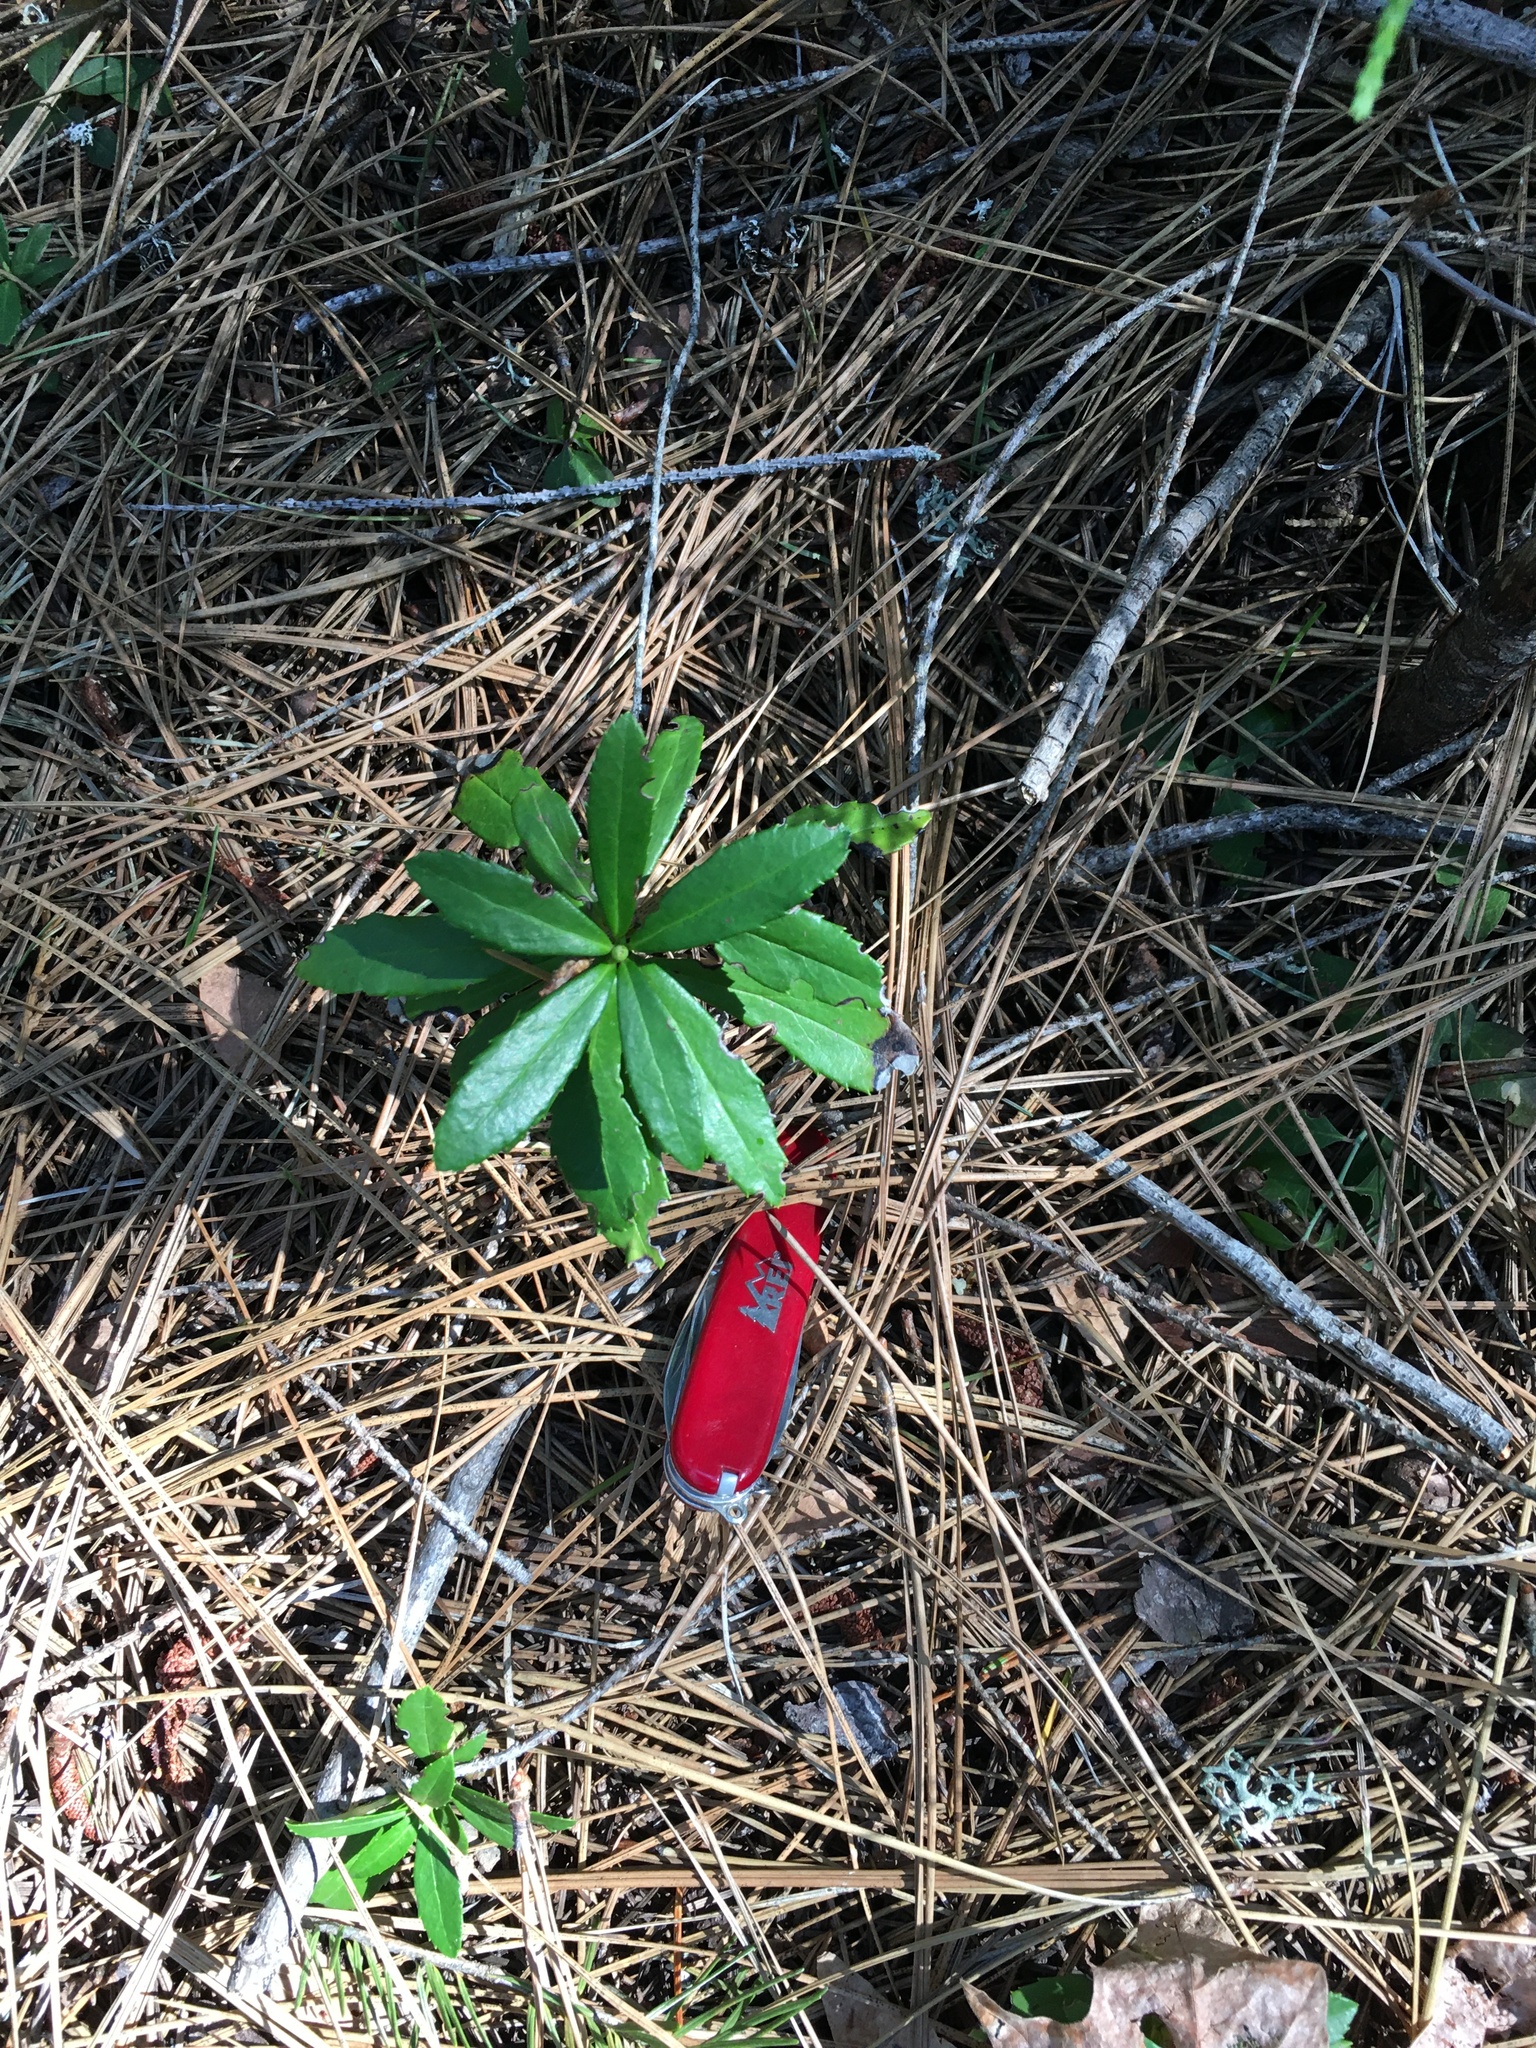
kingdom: Plantae
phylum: Tracheophyta
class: Magnoliopsida
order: Ericales
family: Ericaceae
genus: Chimaphila
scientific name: Chimaphila umbellata
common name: Pipsissewa
